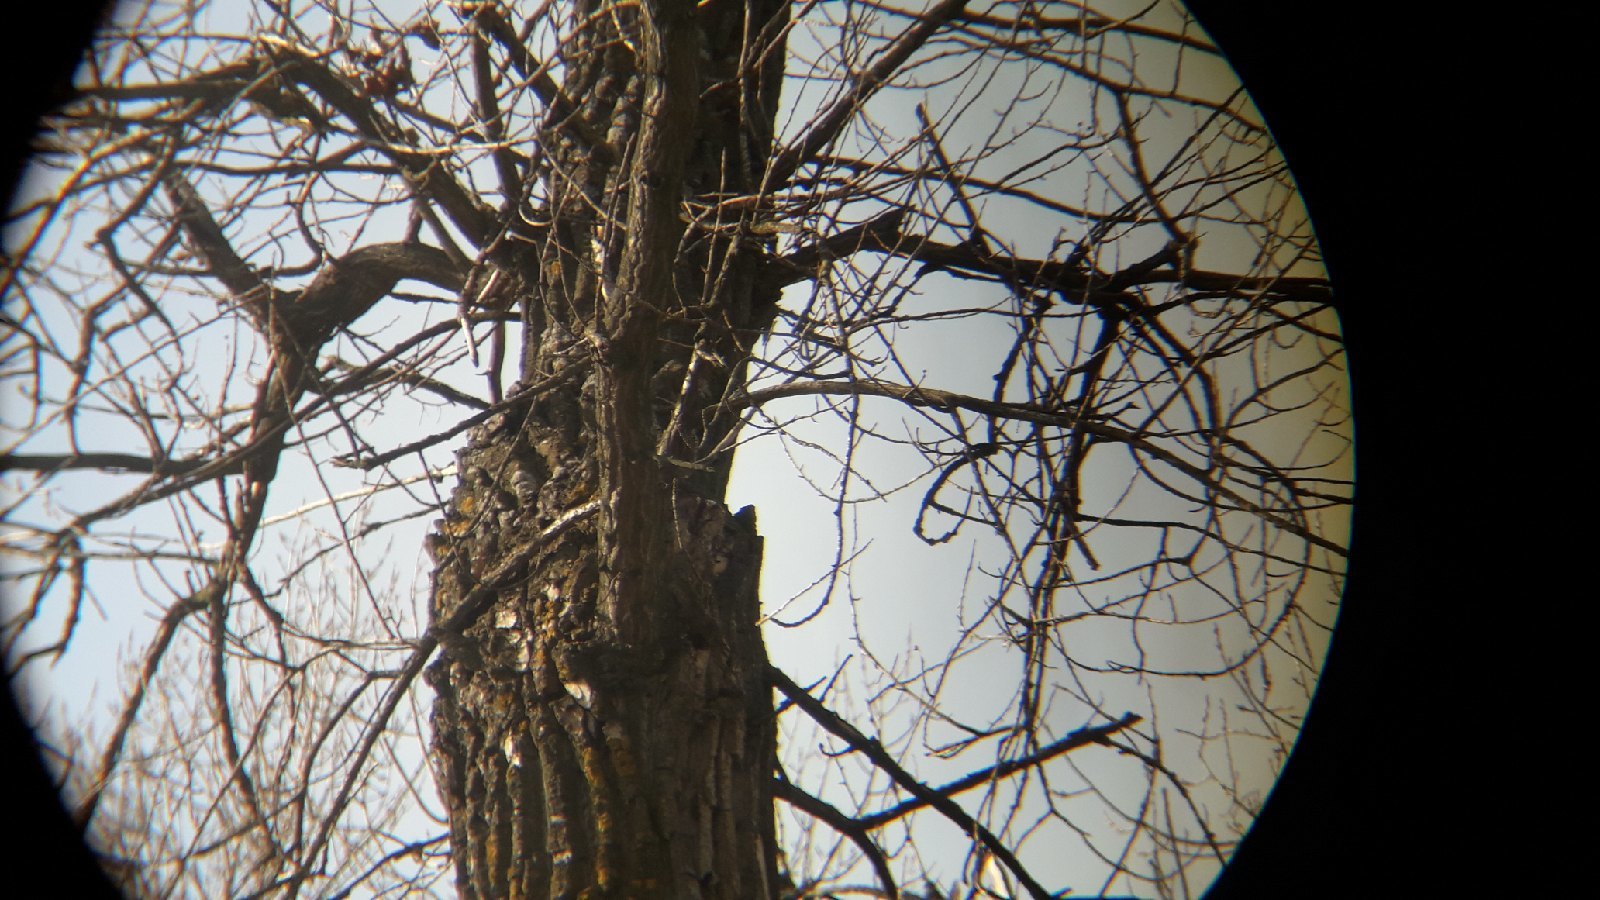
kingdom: Animalia
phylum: Chordata
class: Aves
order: Strigiformes
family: Strigidae
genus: Strix
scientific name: Strix aluco
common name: Tawny owl
